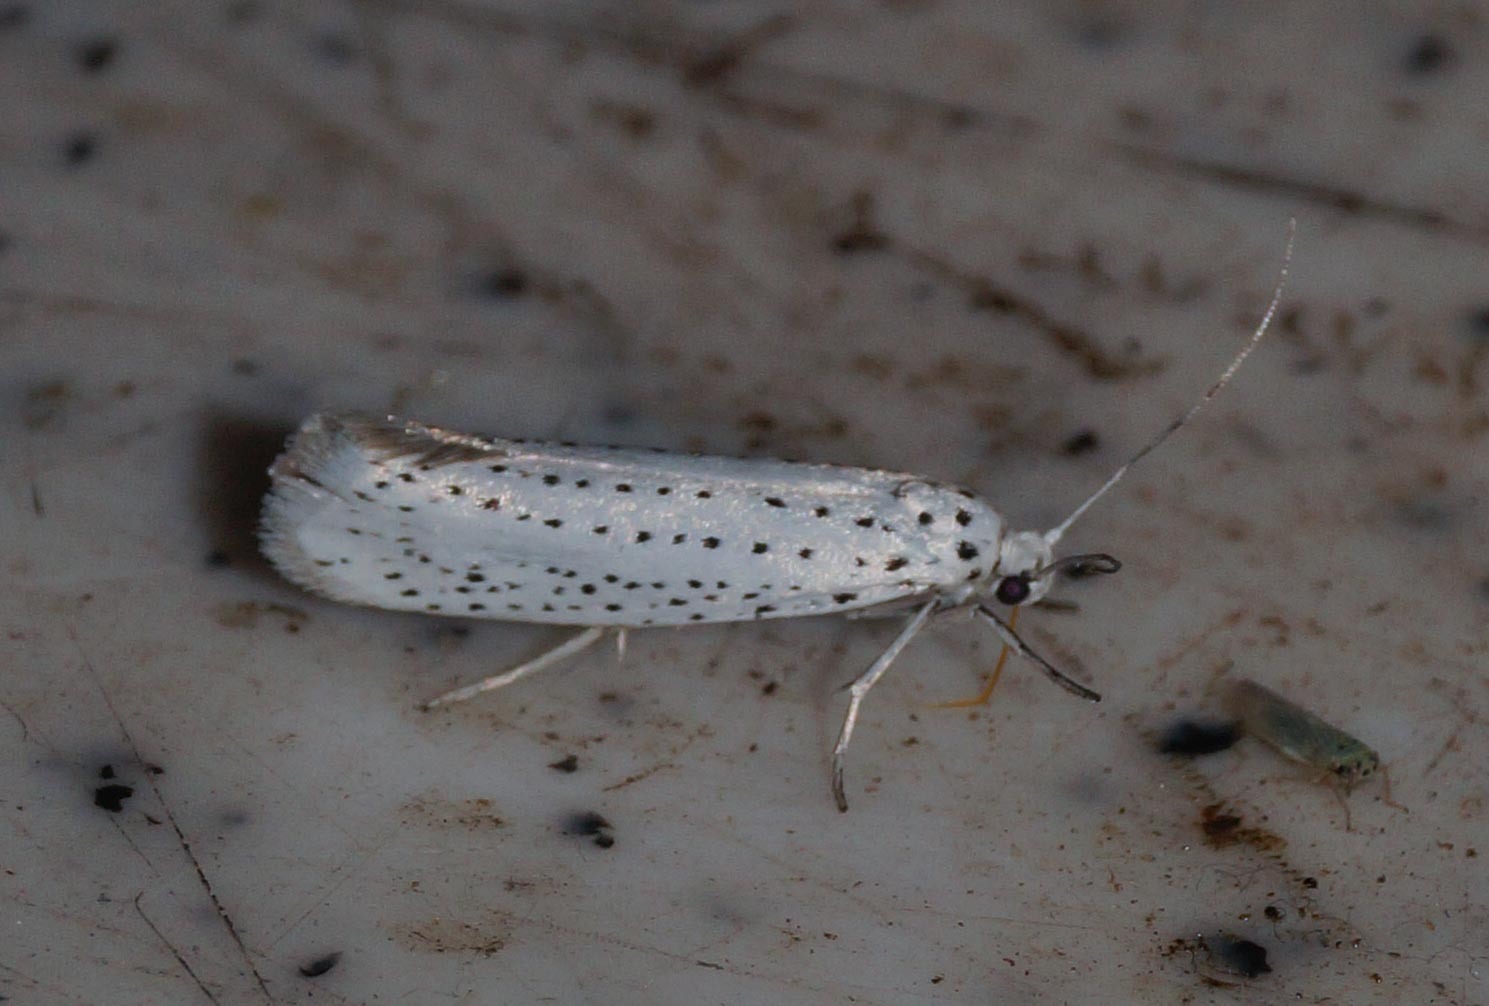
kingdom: Animalia
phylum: Arthropoda
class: Insecta
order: Lepidoptera
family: Yponomeutidae
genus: Yponomeuta
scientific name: Yponomeuta evonymella
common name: Bird-cherry ermine
